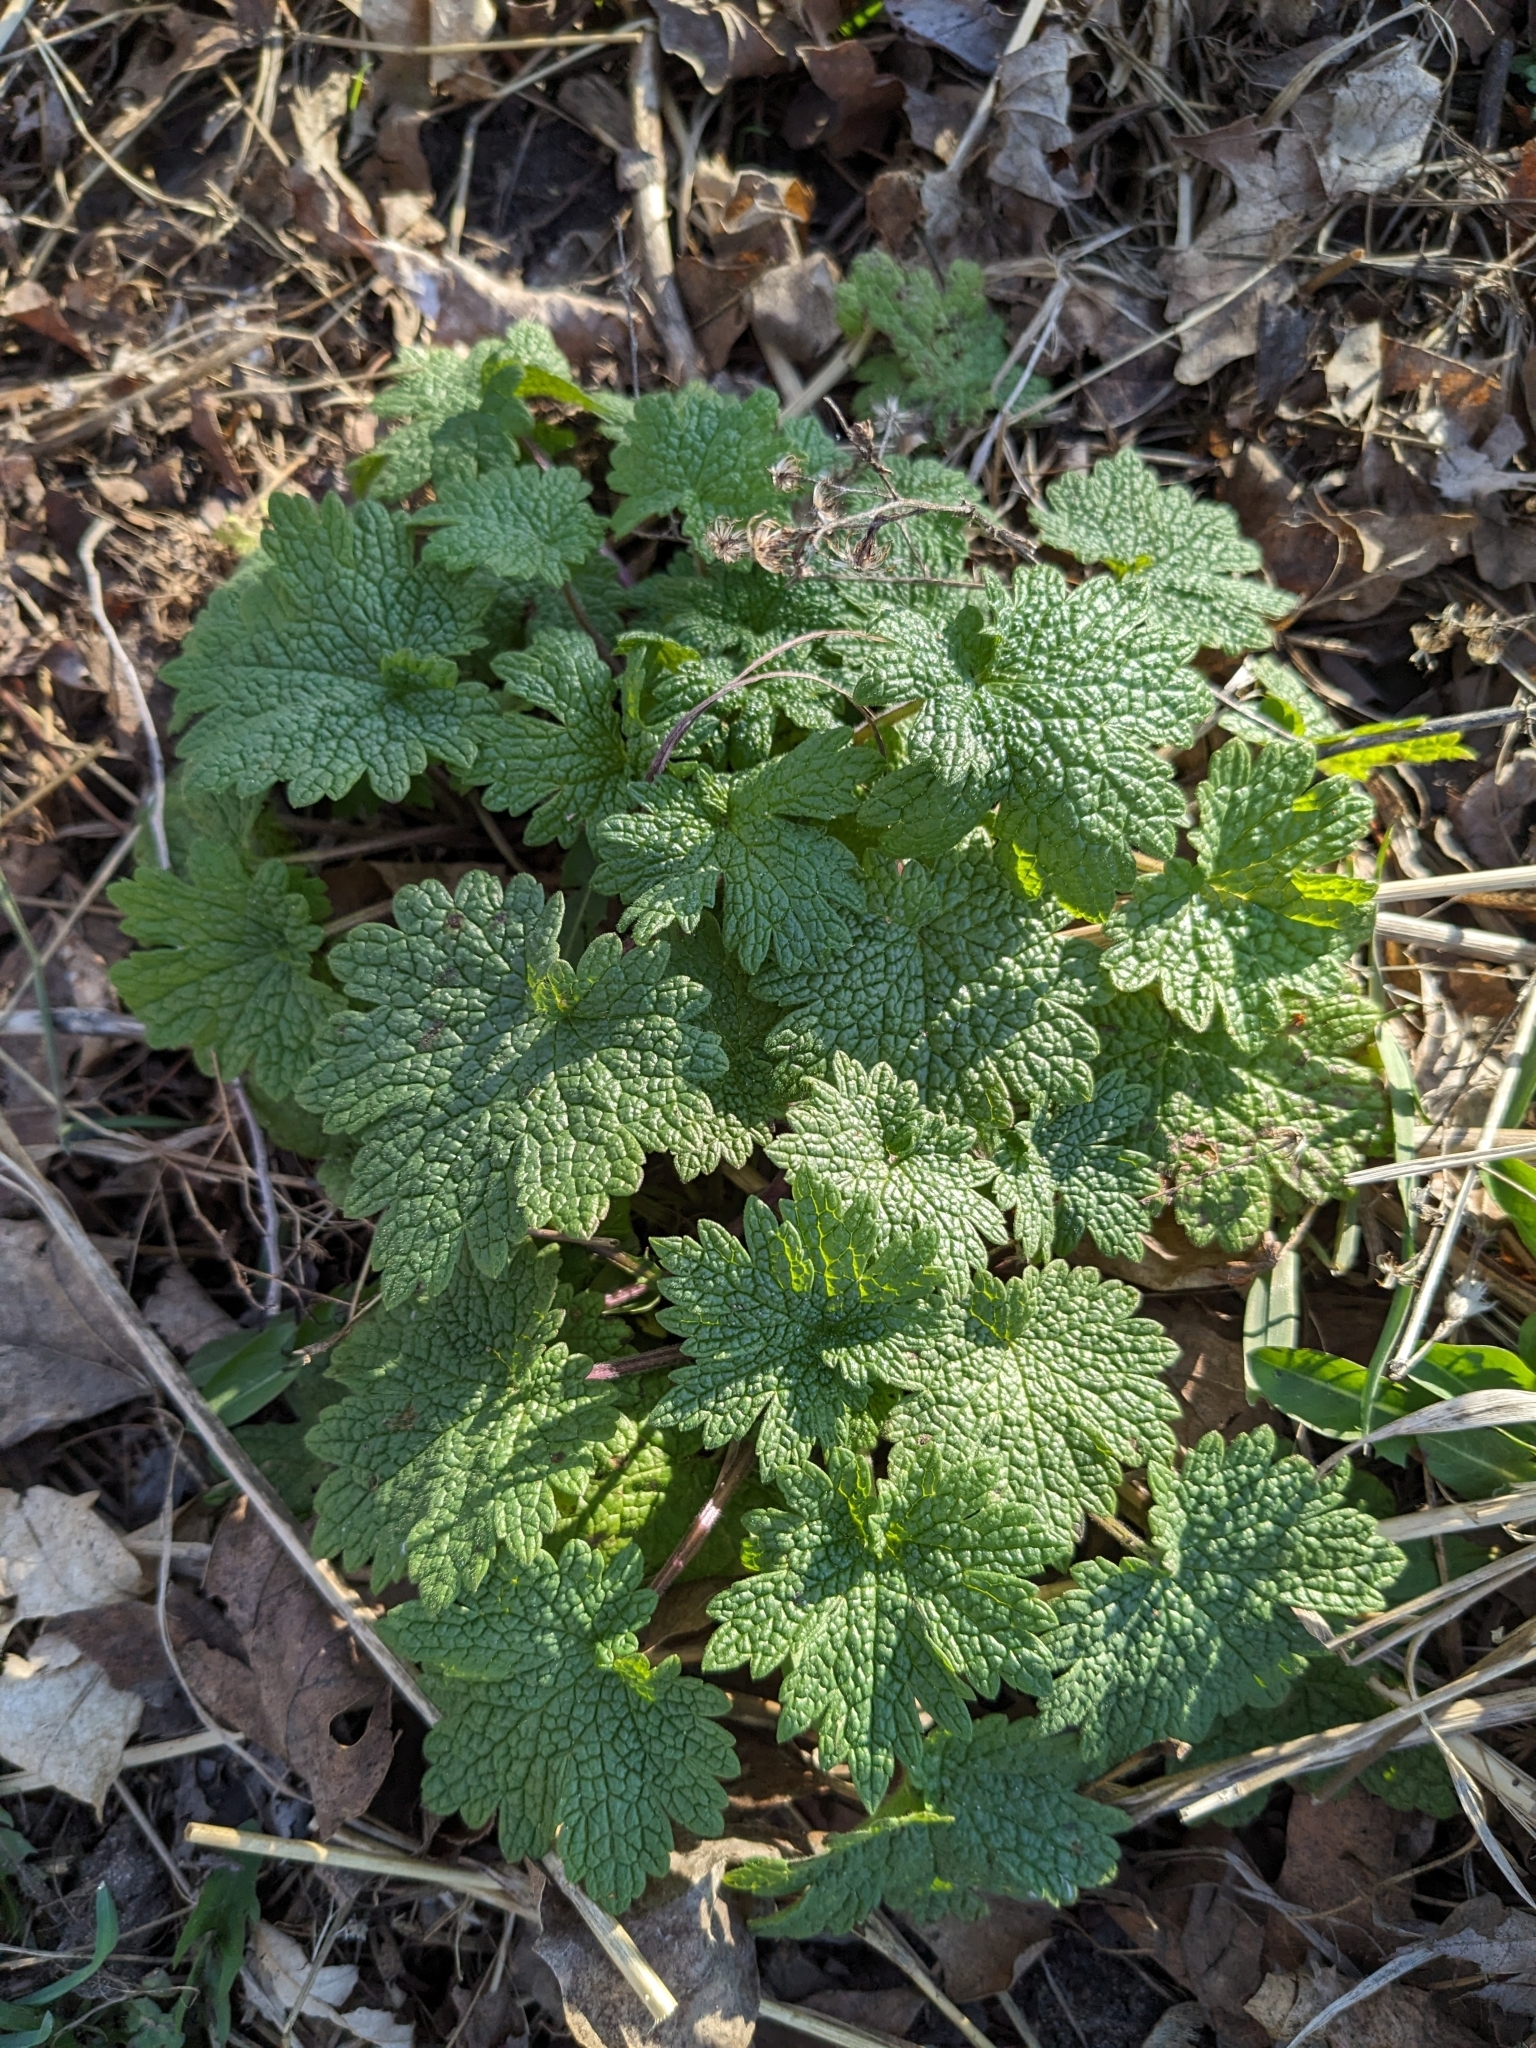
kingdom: Plantae
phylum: Tracheophyta
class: Magnoliopsida
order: Lamiales
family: Lamiaceae
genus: Leonurus
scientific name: Leonurus cardiaca
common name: Motherwort
